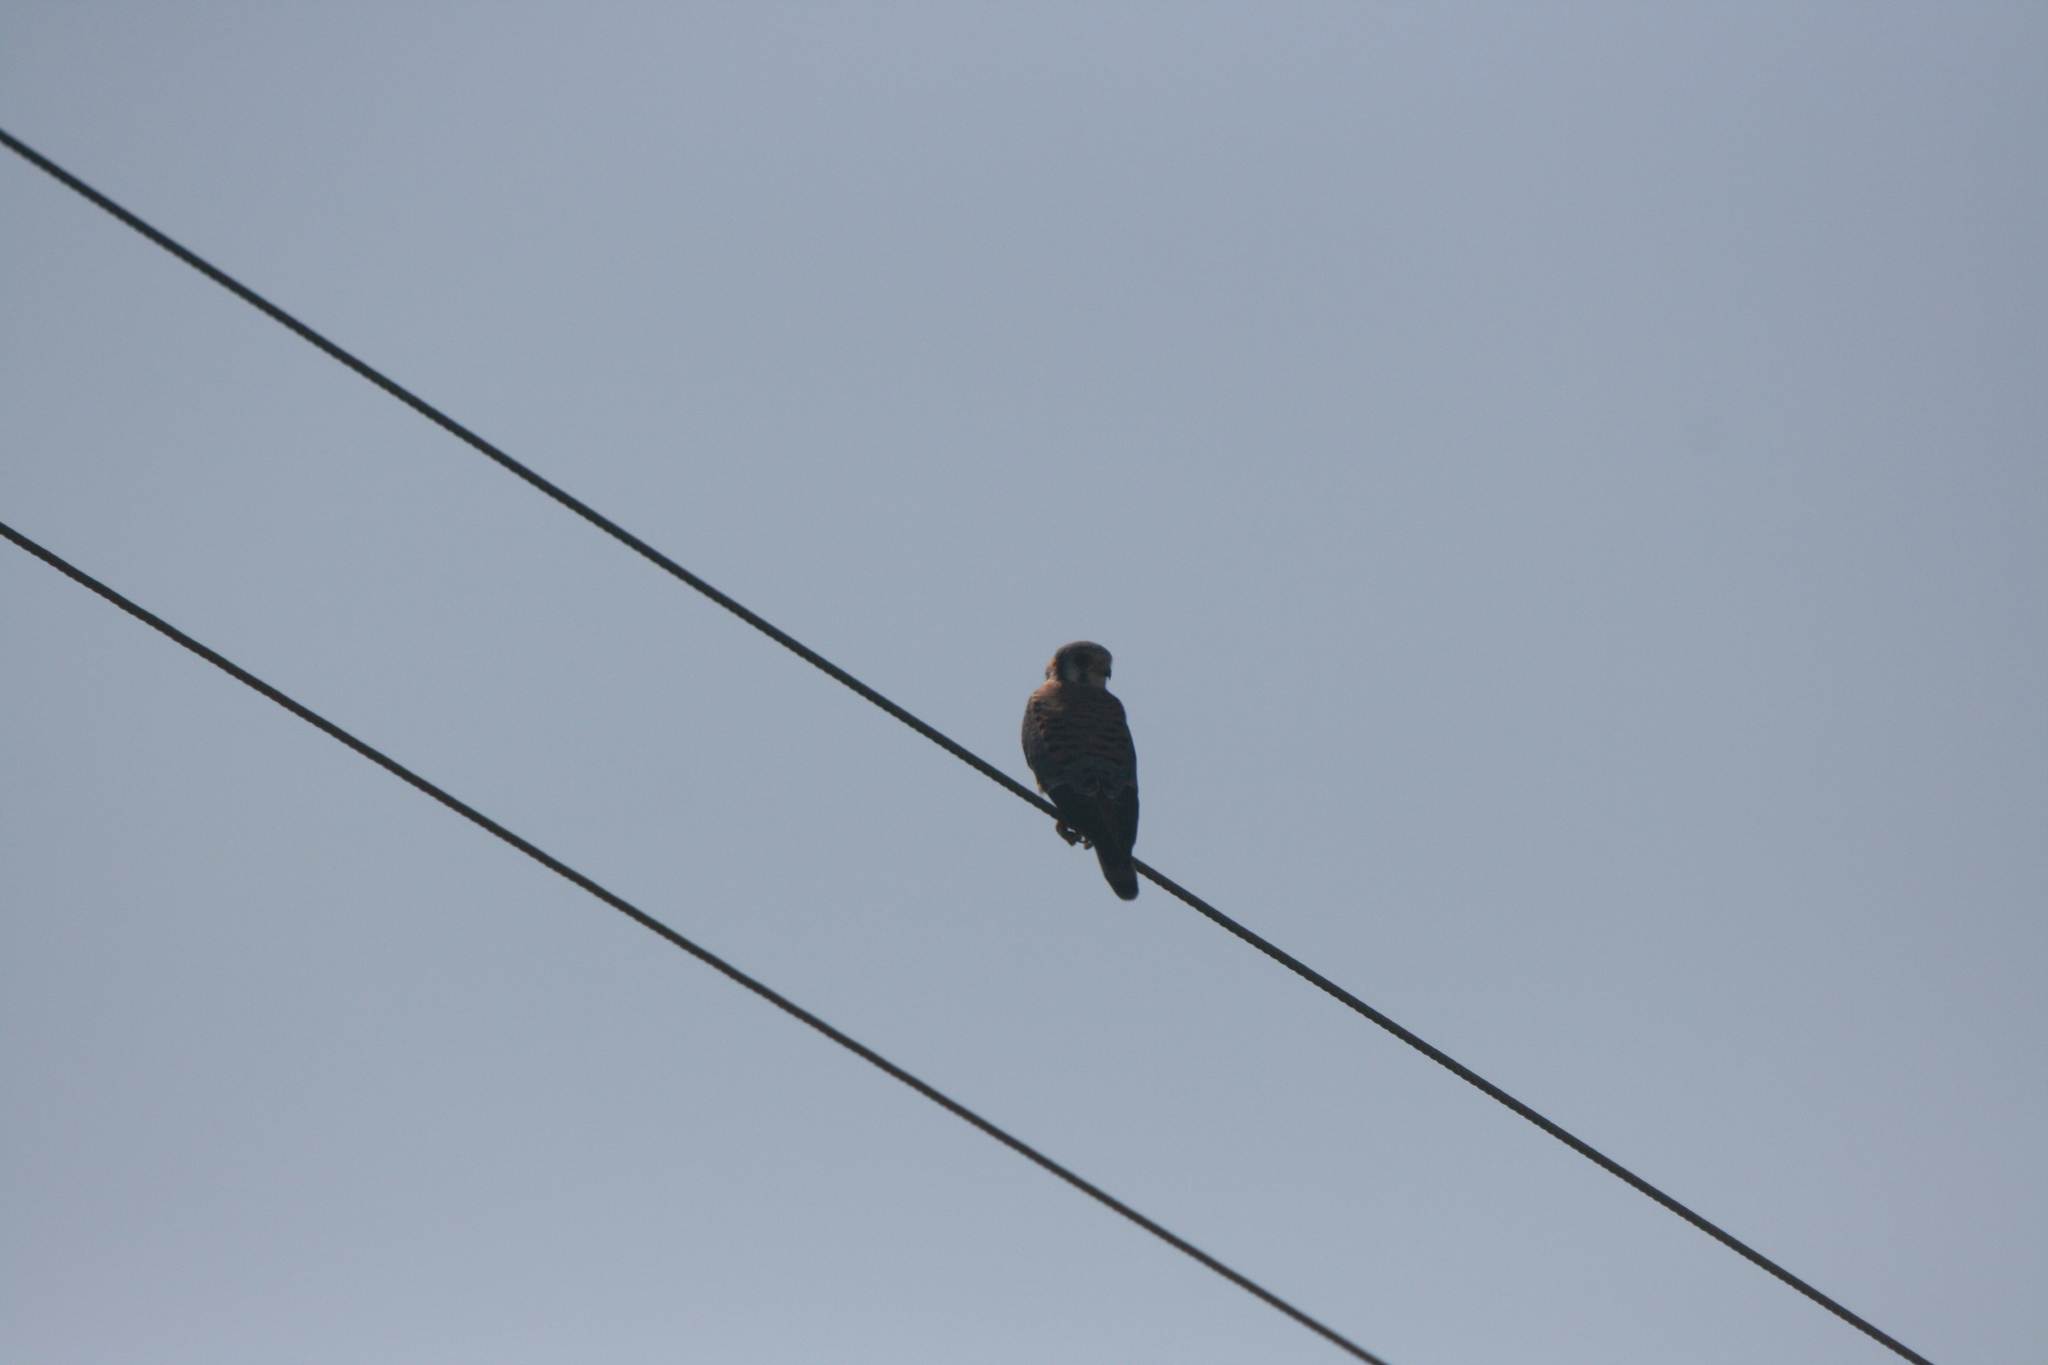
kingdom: Animalia
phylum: Chordata
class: Aves
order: Falconiformes
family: Falconidae
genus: Falco
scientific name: Falco sparverius
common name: American kestrel
